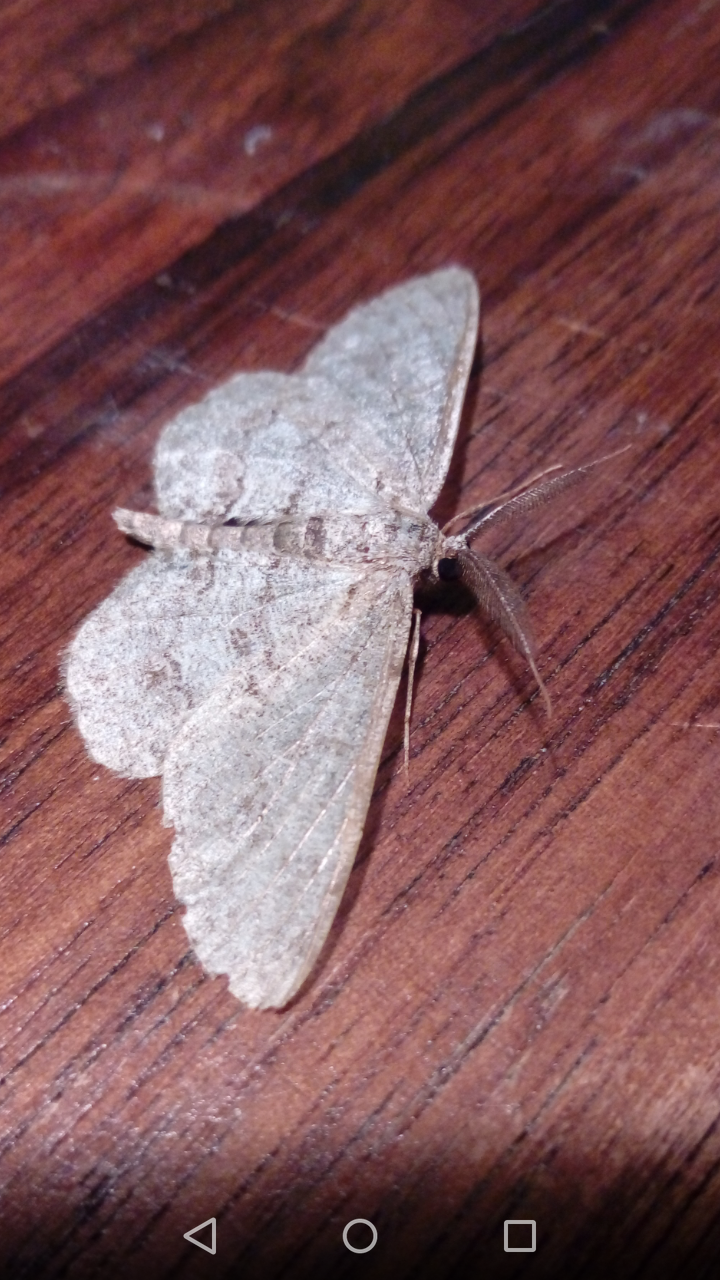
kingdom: Animalia
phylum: Arthropoda
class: Insecta
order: Lepidoptera
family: Geometridae
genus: Hypomecis
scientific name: Hypomecis punctinalis
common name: Pale oak beauty
